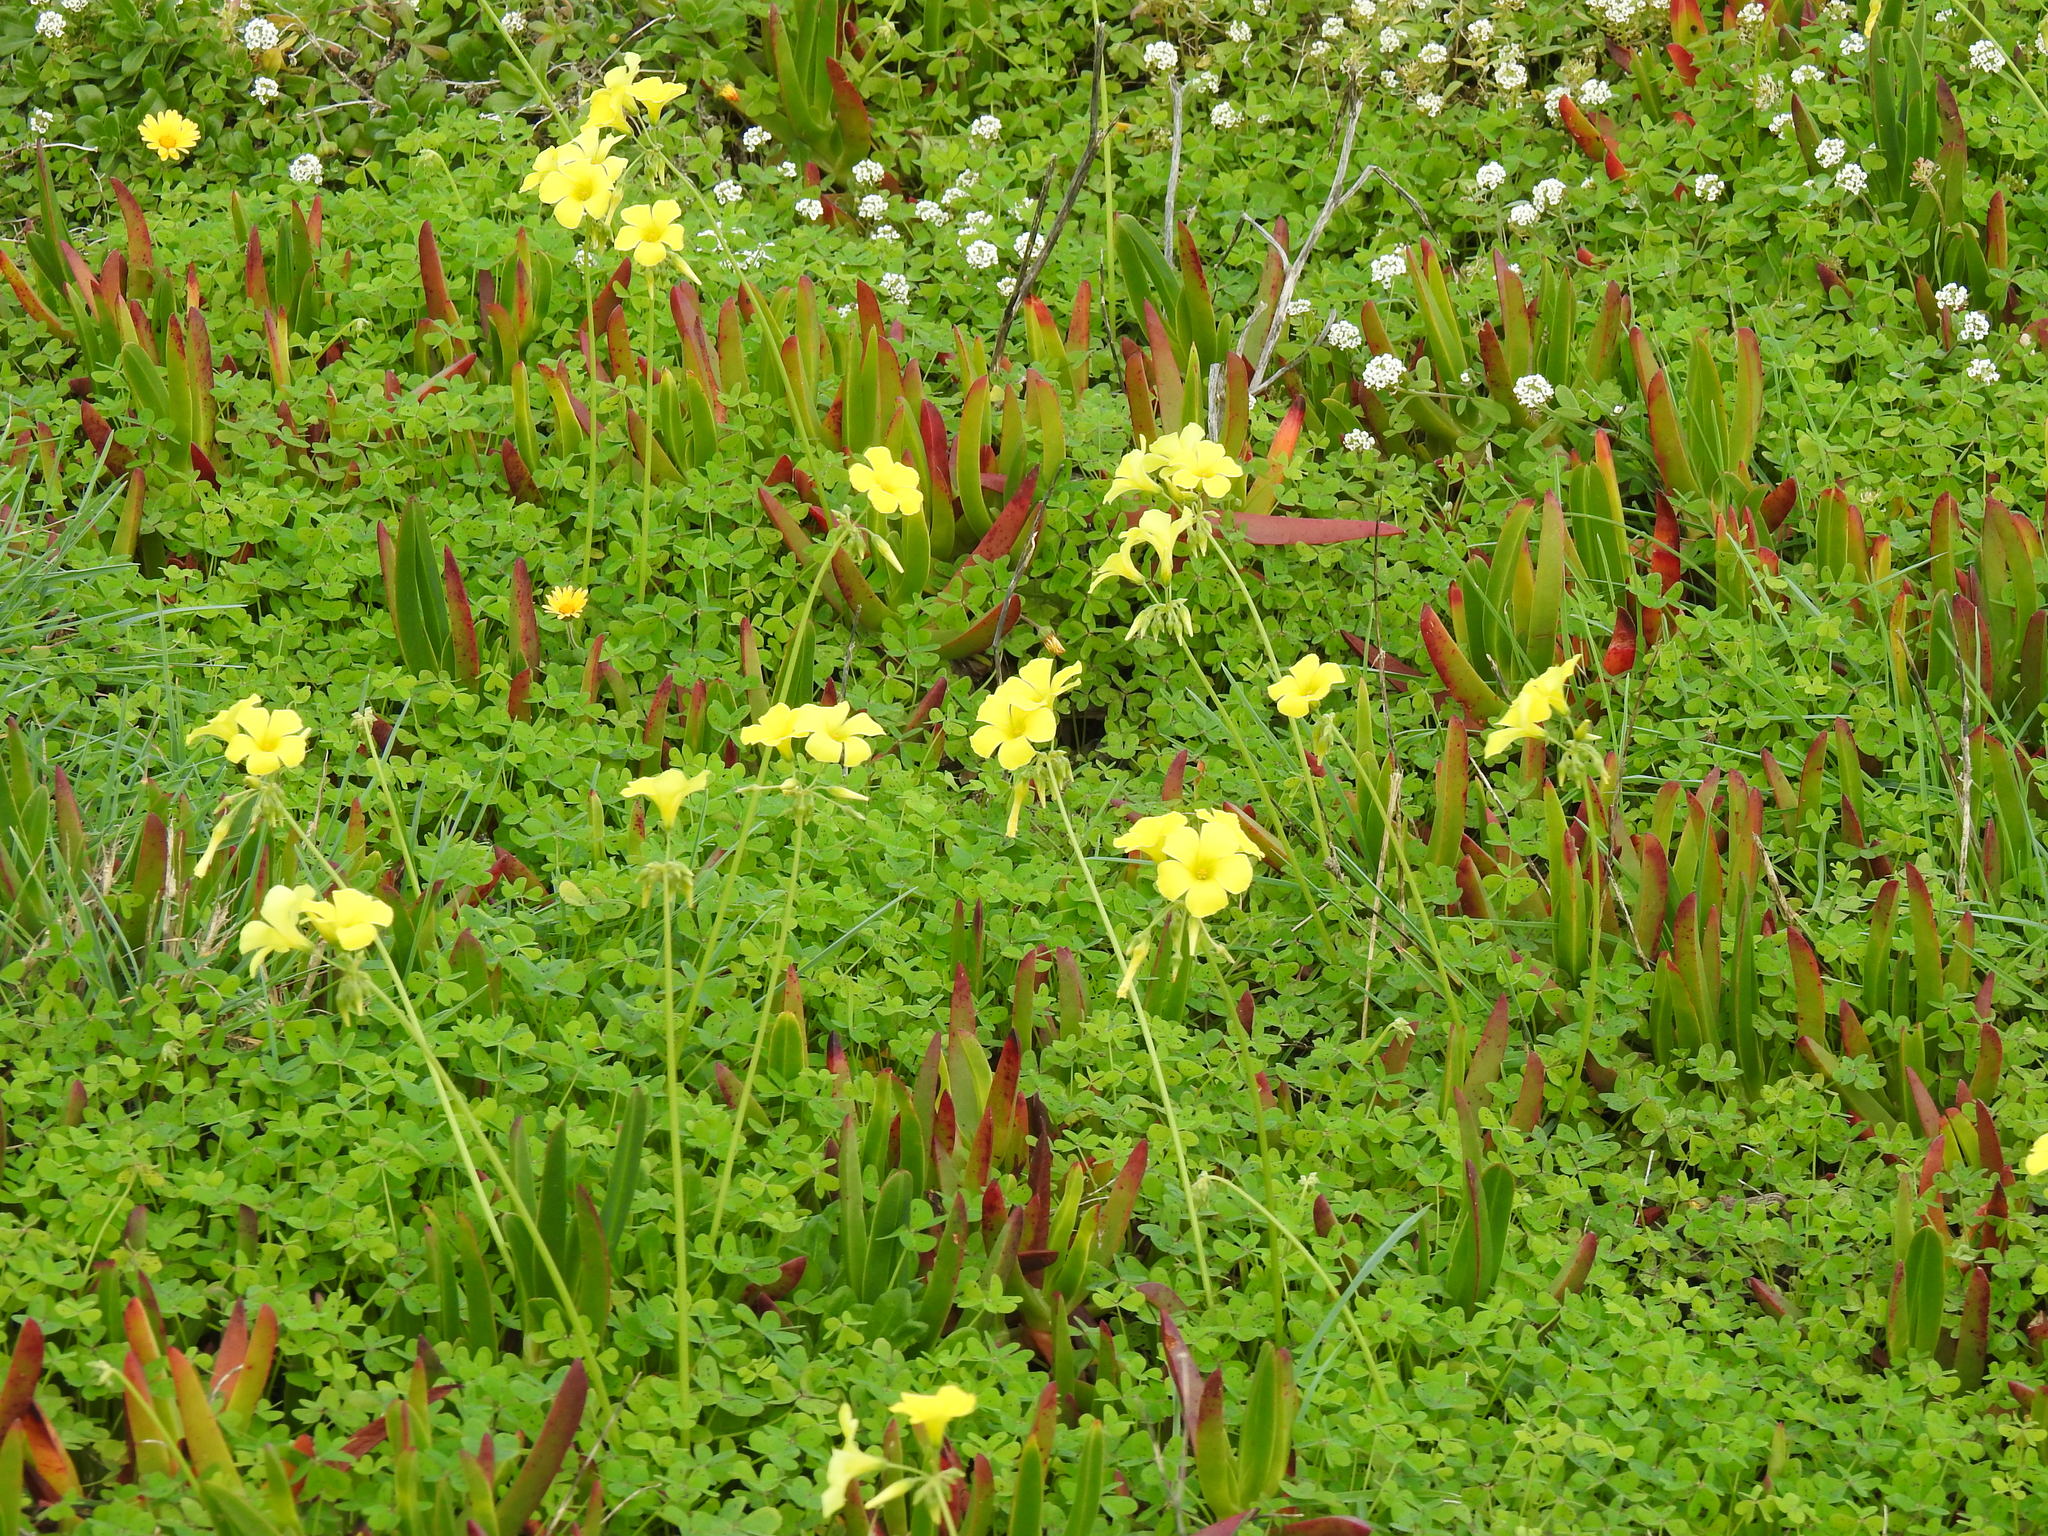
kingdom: Plantae
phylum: Tracheophyta
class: Magnoliopsida
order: Oxalidales
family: Oxalidaceae
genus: Oxalis
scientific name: Oxalis pes-caprae
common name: Bermuda-buttercup
